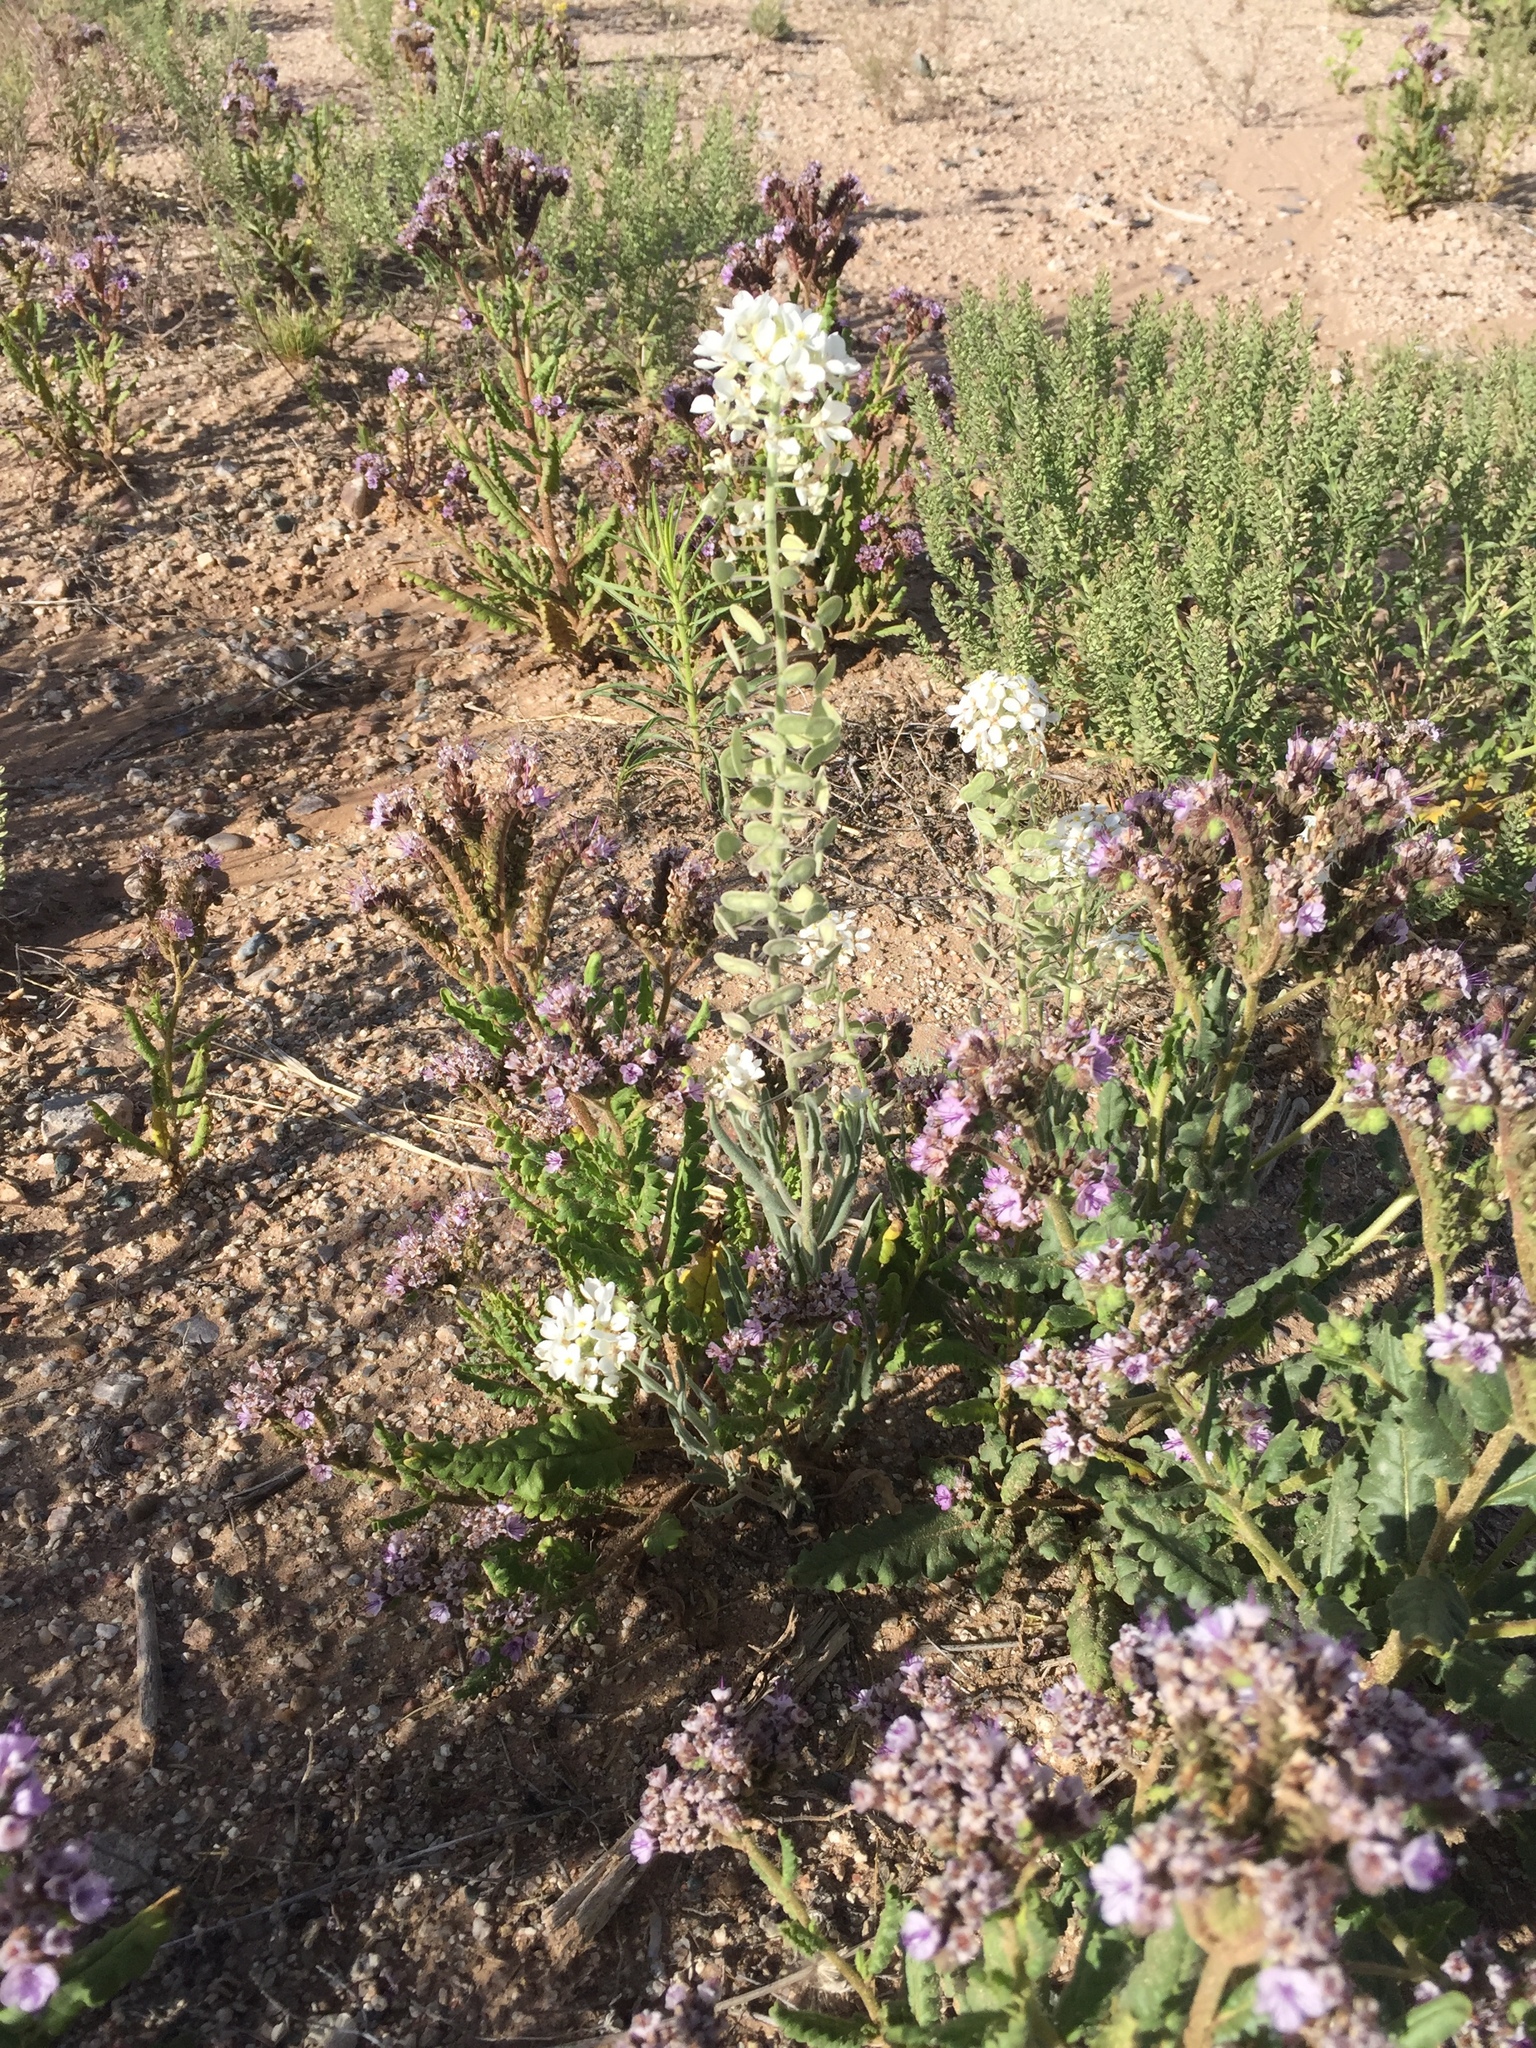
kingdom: Plantae
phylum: Tracheophyta
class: Magnoliopsida
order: Brassicales
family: Brassicaceae
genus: Dimorphocarpa
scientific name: Dimorphocarpa wislizenii
